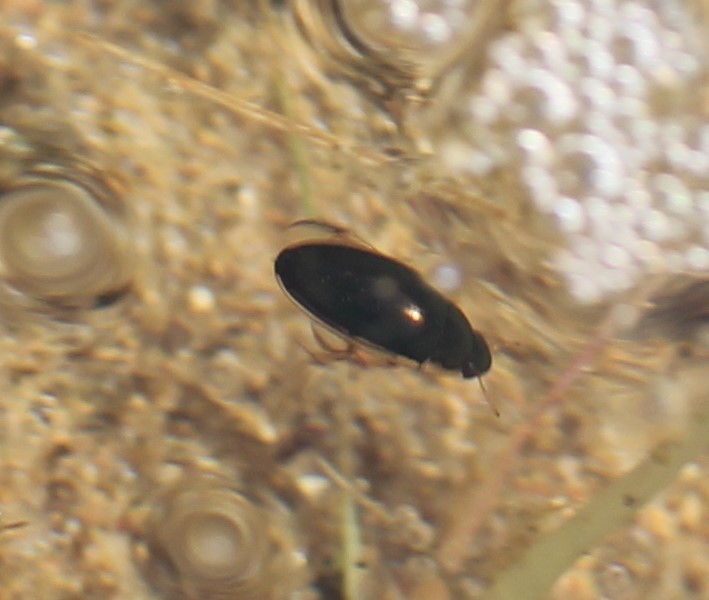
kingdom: Animalia
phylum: Arthropoda
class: Insecta
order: Coleoptera
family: Hydrophilidae
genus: Tropisternus
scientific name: Tropisternus lateralis
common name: Lateral-banded water scavenger beetle
